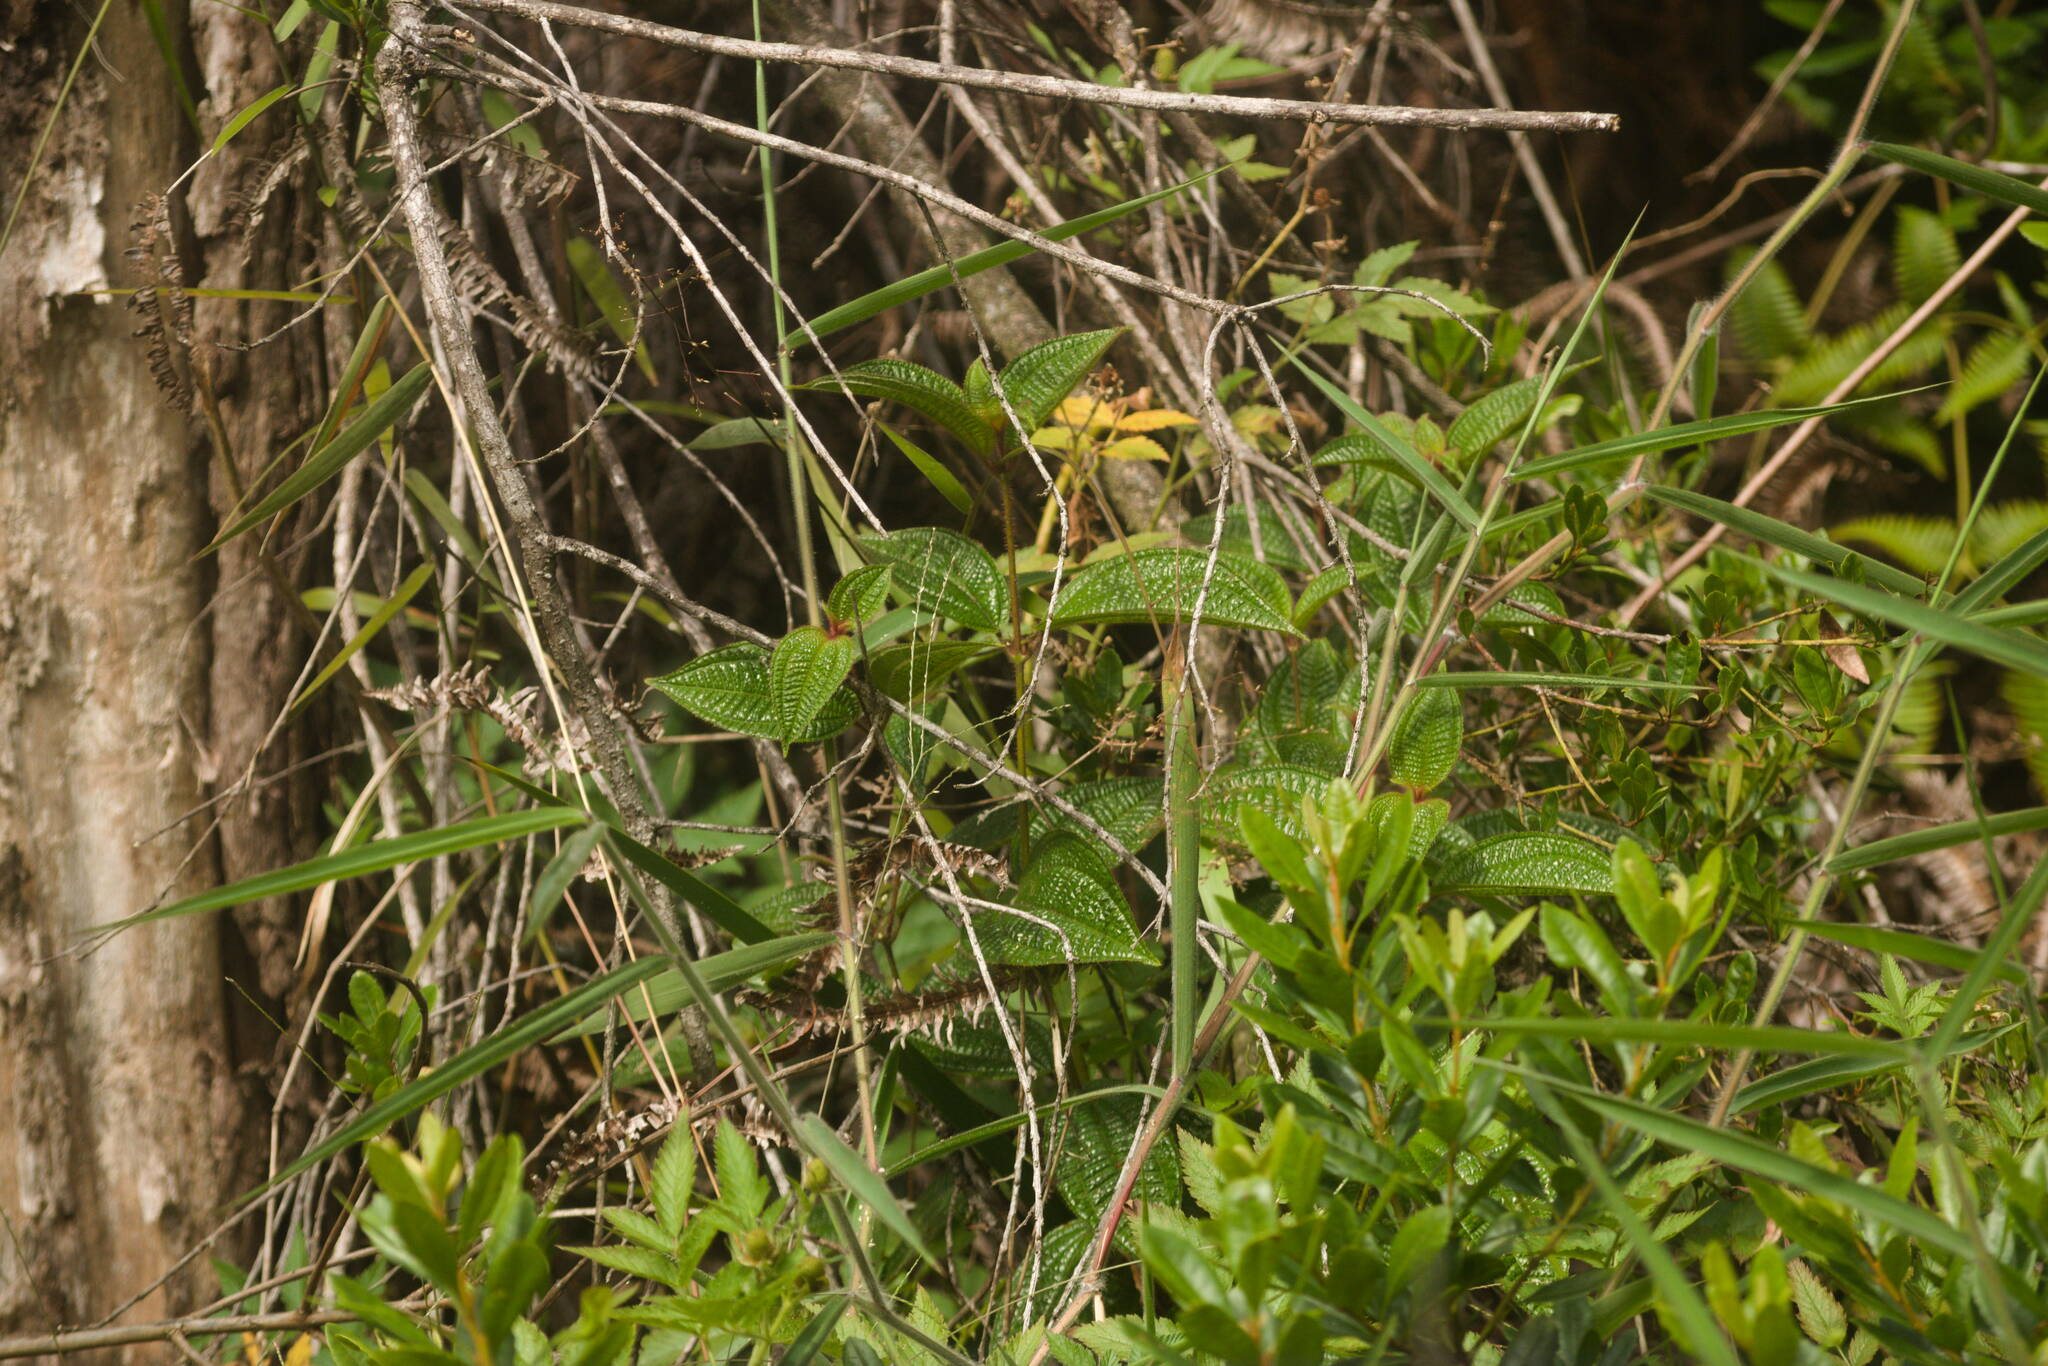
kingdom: Plantae
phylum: Tracheophyta
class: Magnoliopsida
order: Myrtales
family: Melastomataceae
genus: Miconia
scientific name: Miconia crenata
